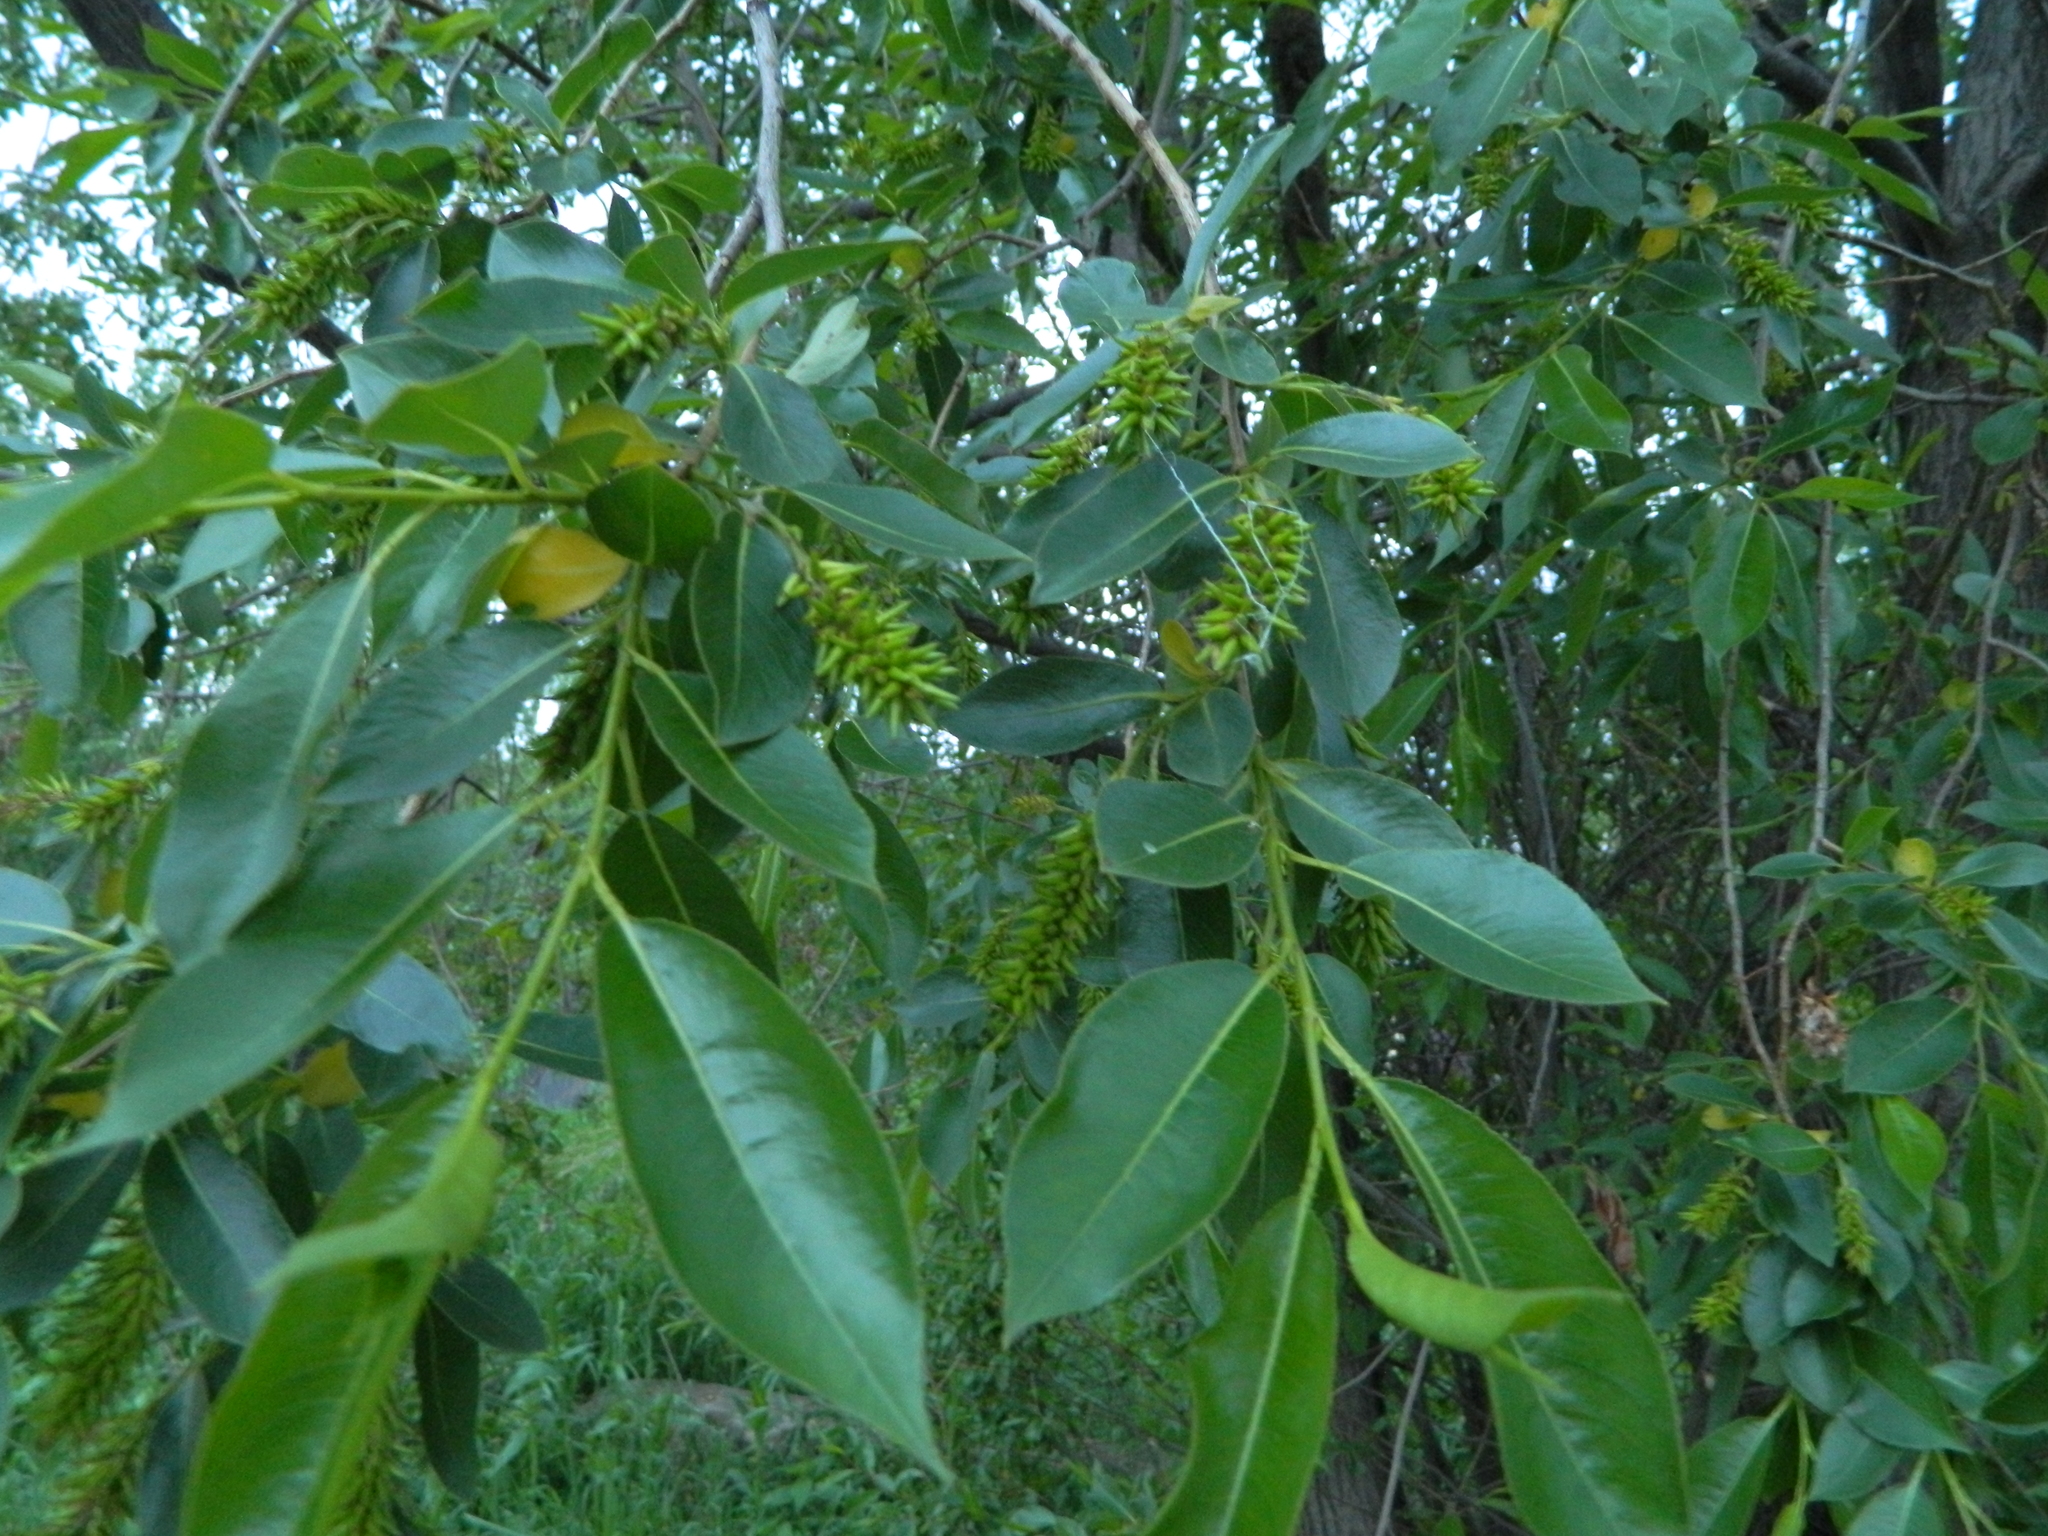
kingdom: Plantae
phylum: Tracheophyta
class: Magnoliopsida
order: Malpighiales
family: Salicaceae
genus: Salix
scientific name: Salix pentandra
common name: Bay willow
